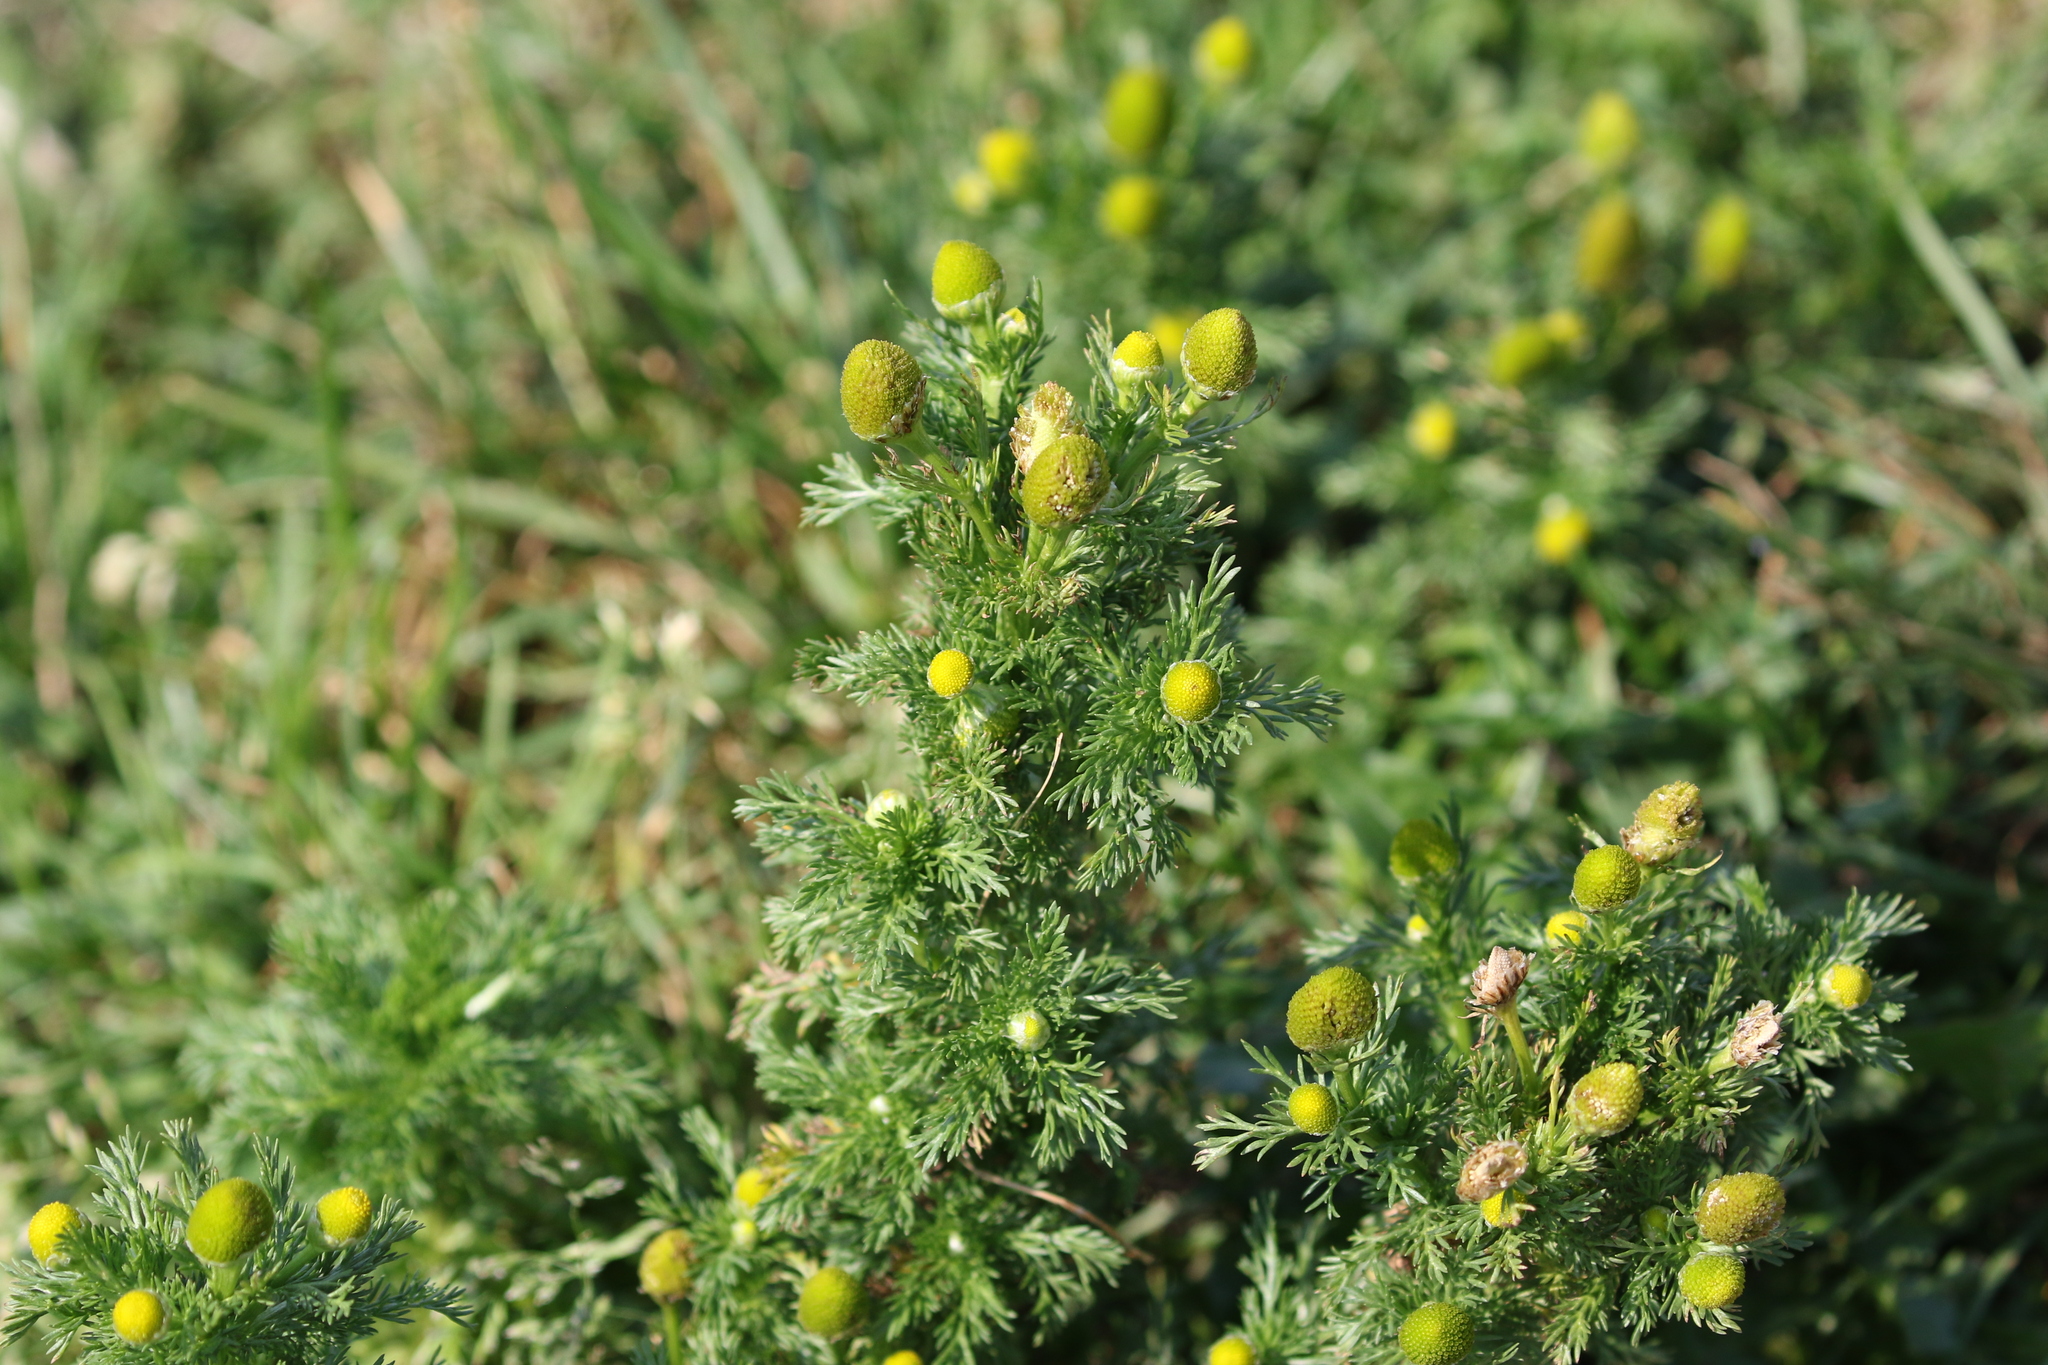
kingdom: Plantae
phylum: Tracheophyta
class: Magnoliopsida
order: Asterales
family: Asteraceae
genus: Matricaria
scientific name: Matricaria discoidea
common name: Disc mayweed
